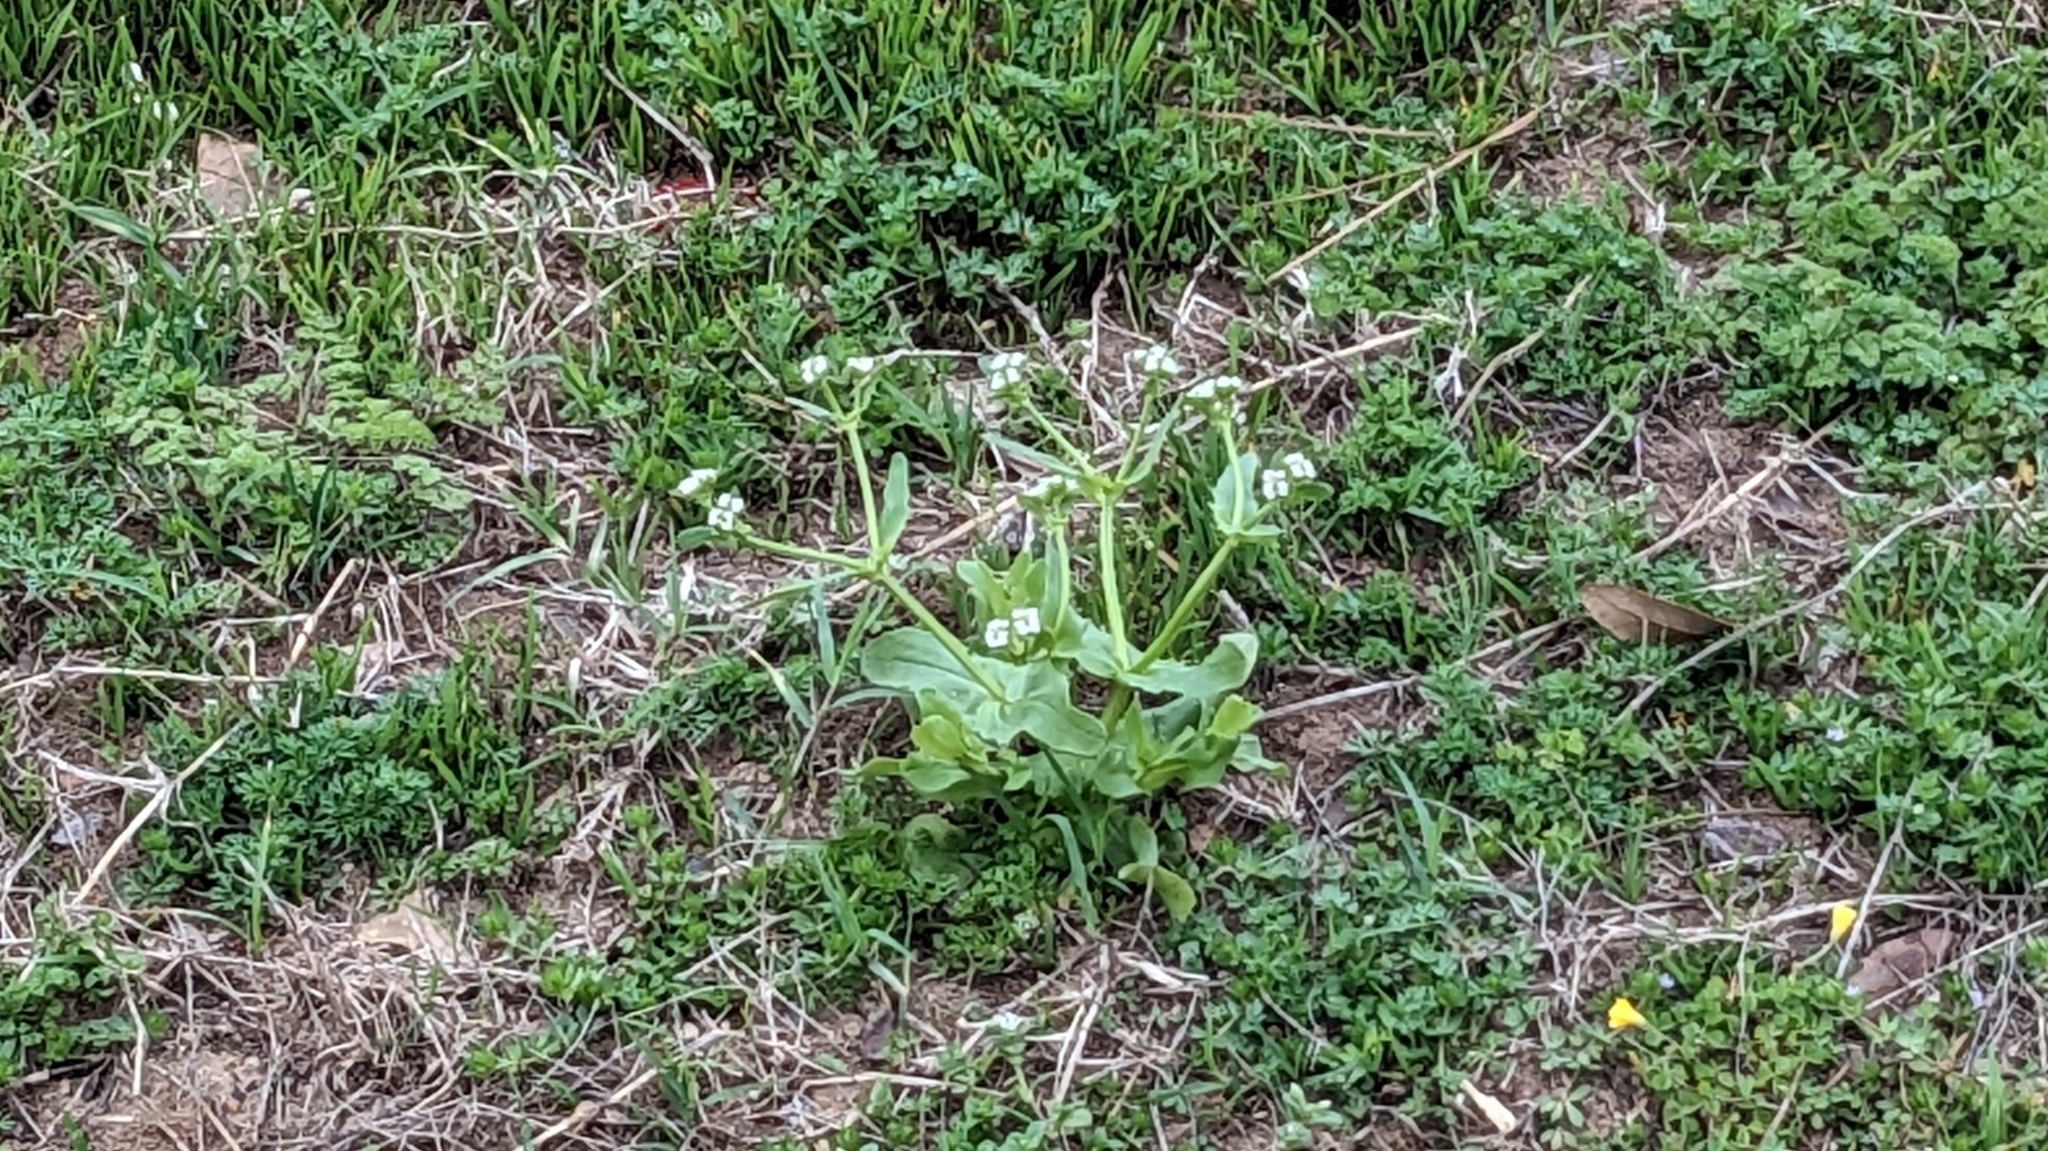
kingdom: Plantae
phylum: Tracheophyta
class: Magnoliopsida
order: Dipsacales
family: Caprifoliaceae
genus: Valerianella
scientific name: Valerianella radiata
